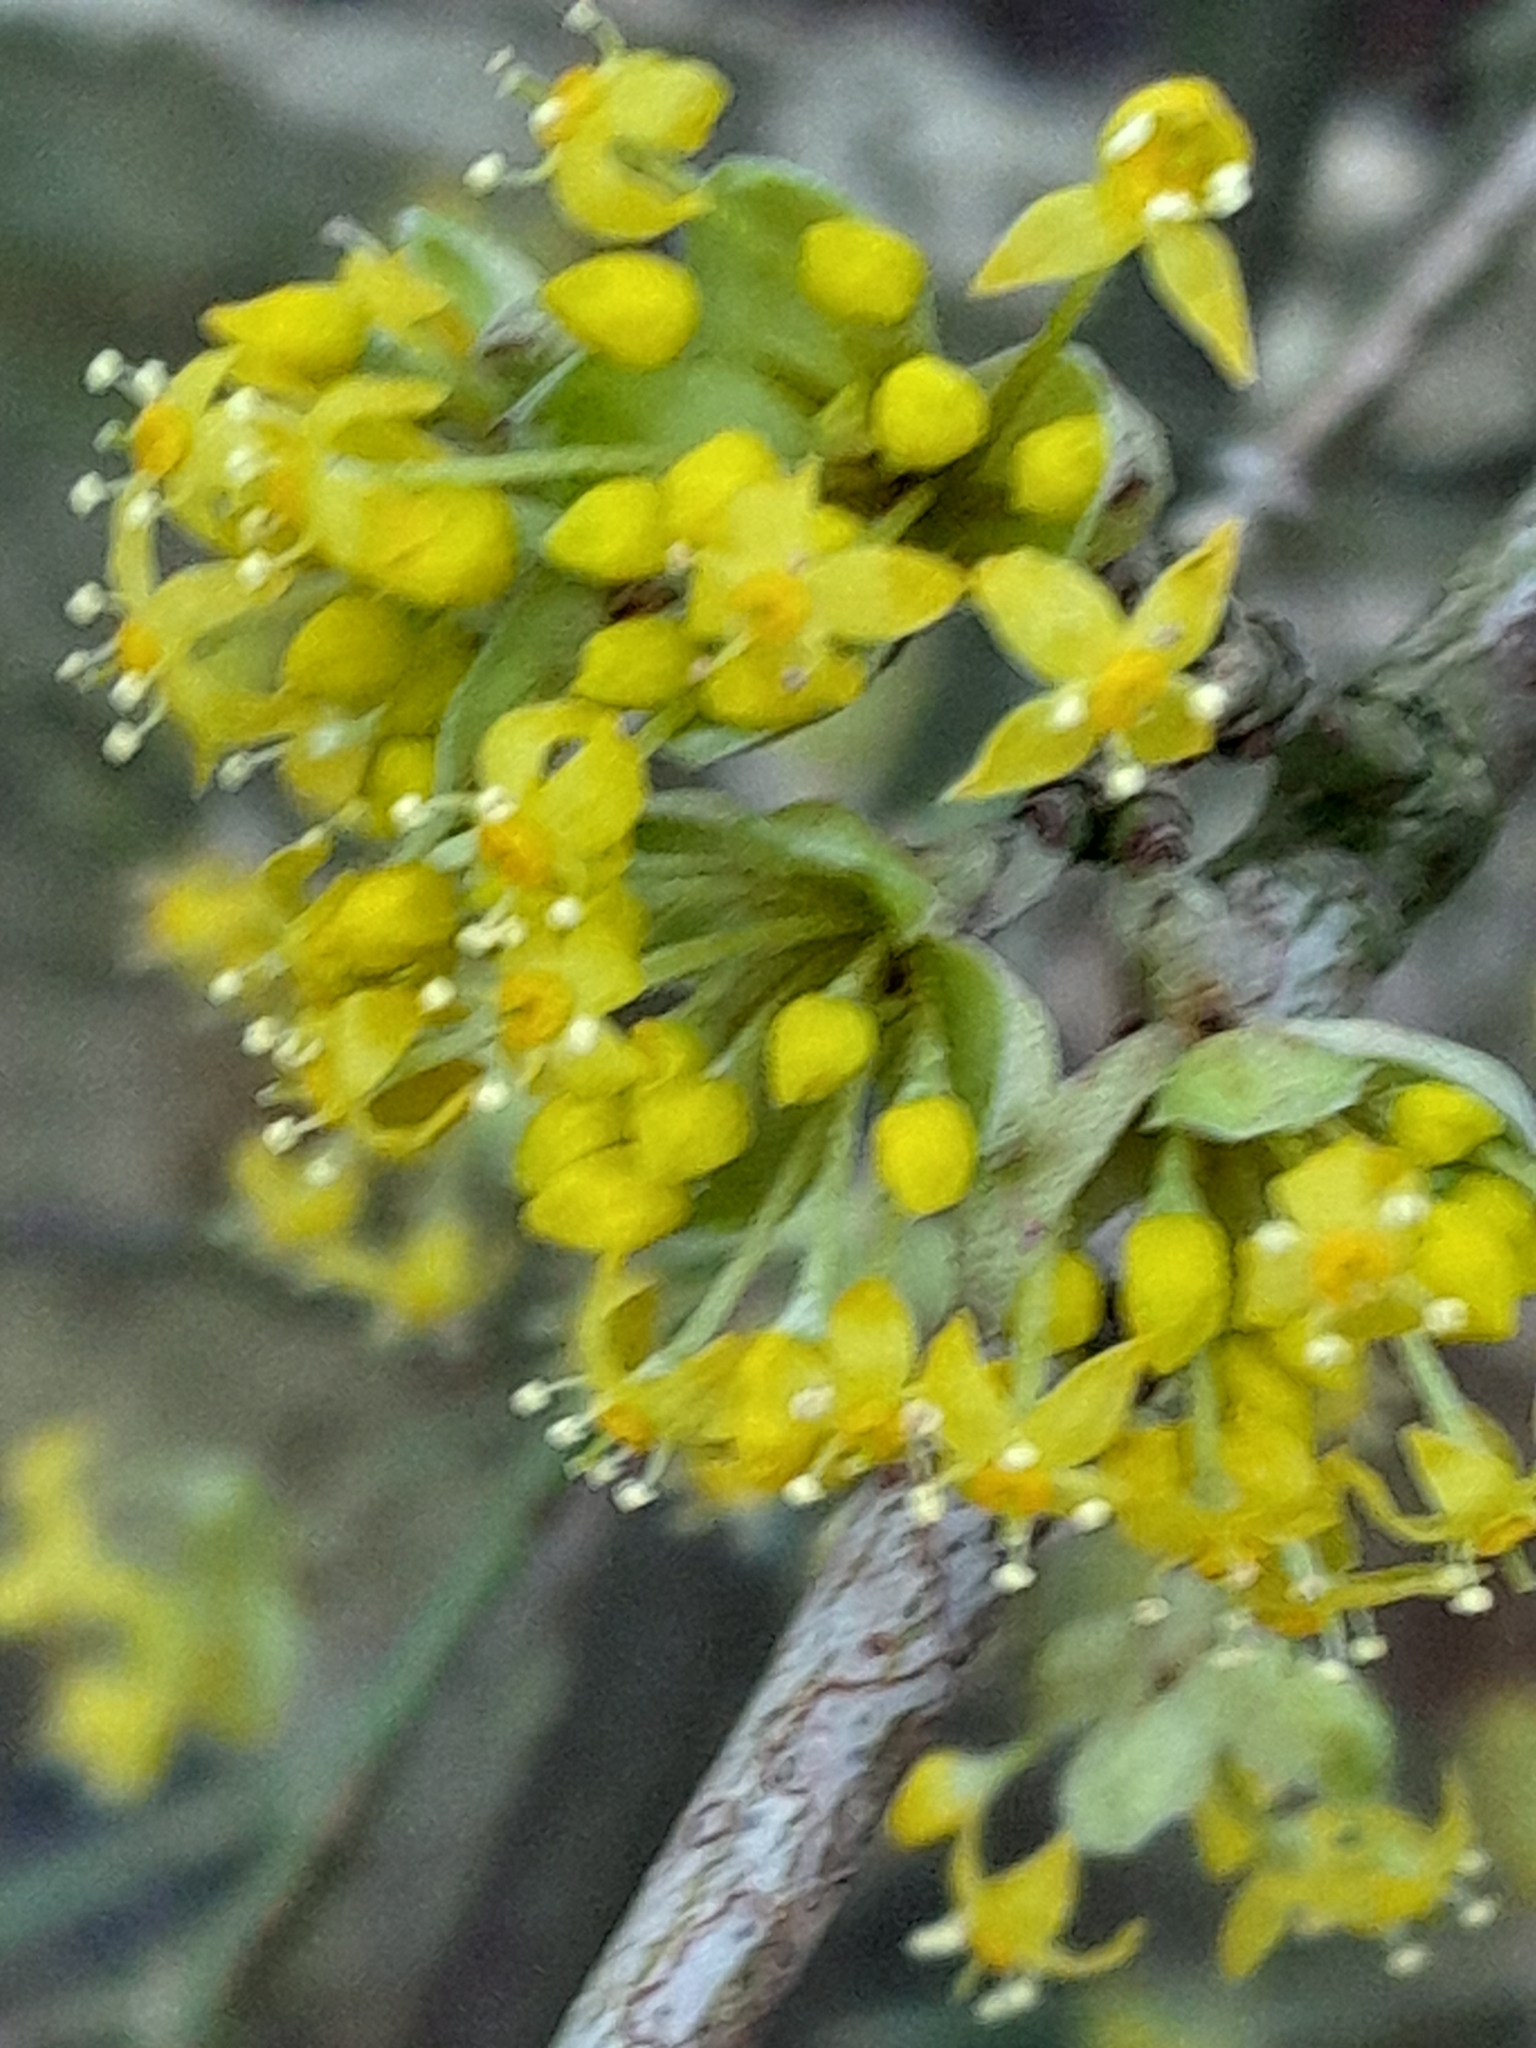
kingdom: Plantae
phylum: Tracheophyta
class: Magnoliopsida
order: Cornales
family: Cornaceae
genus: Cornus
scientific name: Cornus mas
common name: Cornelian-cherry
